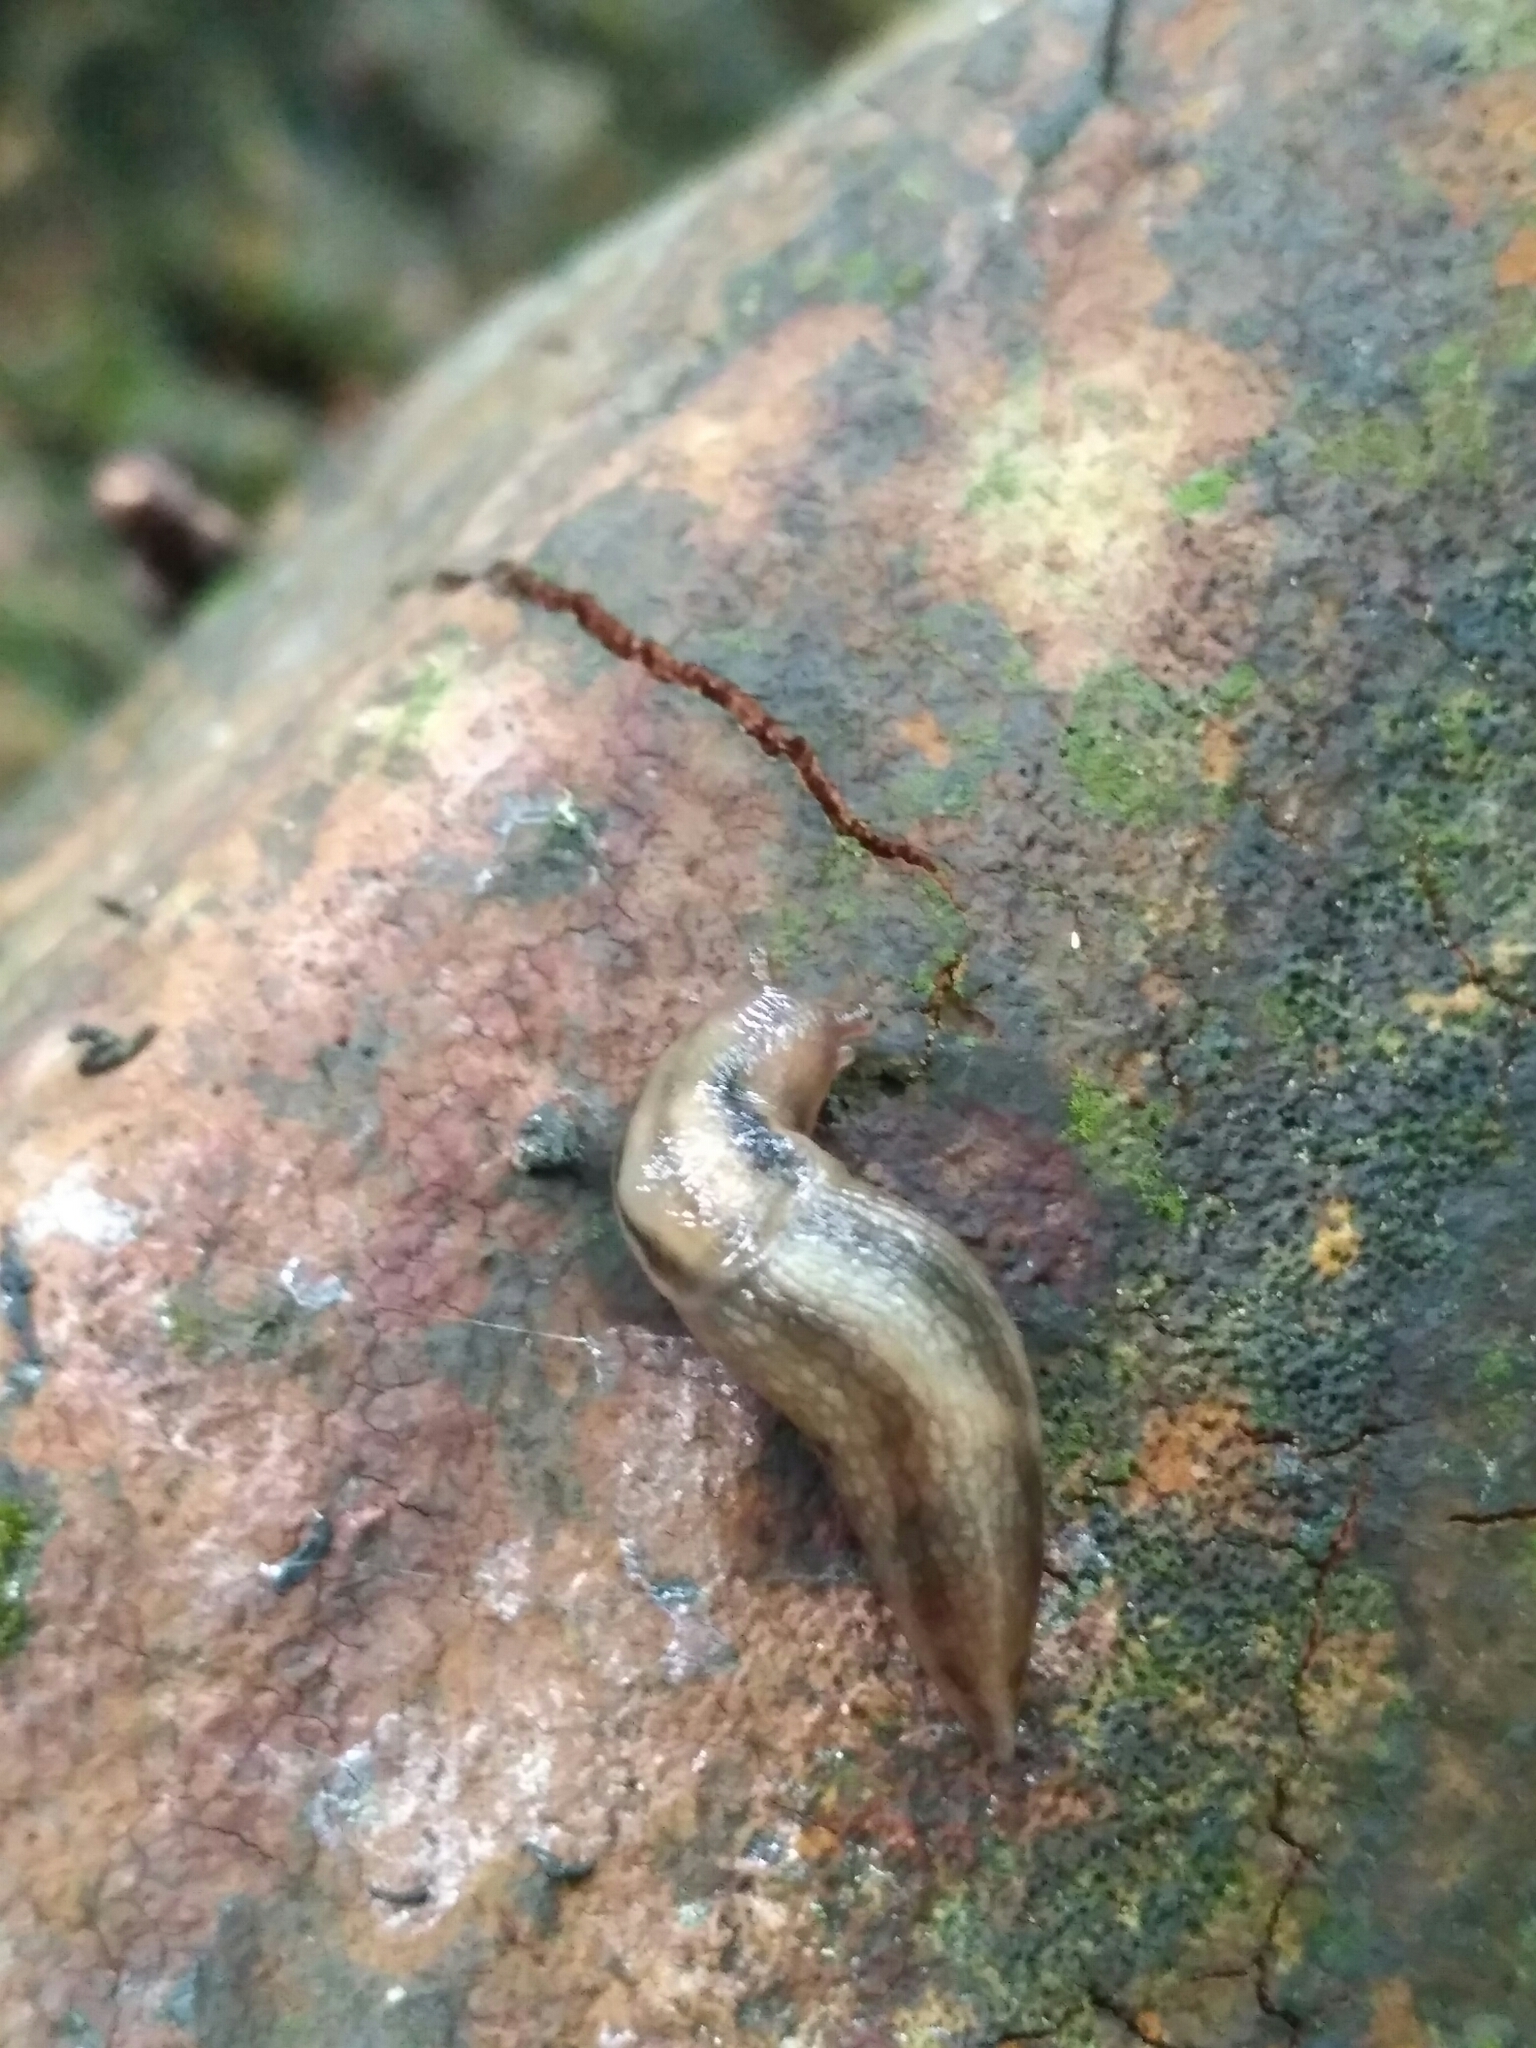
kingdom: Animalia
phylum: Mollusca
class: Gastropoda
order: Stylommatophora
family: Limacidae
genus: Lehmannia
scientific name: Lehmannia marginata
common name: Tree slug
